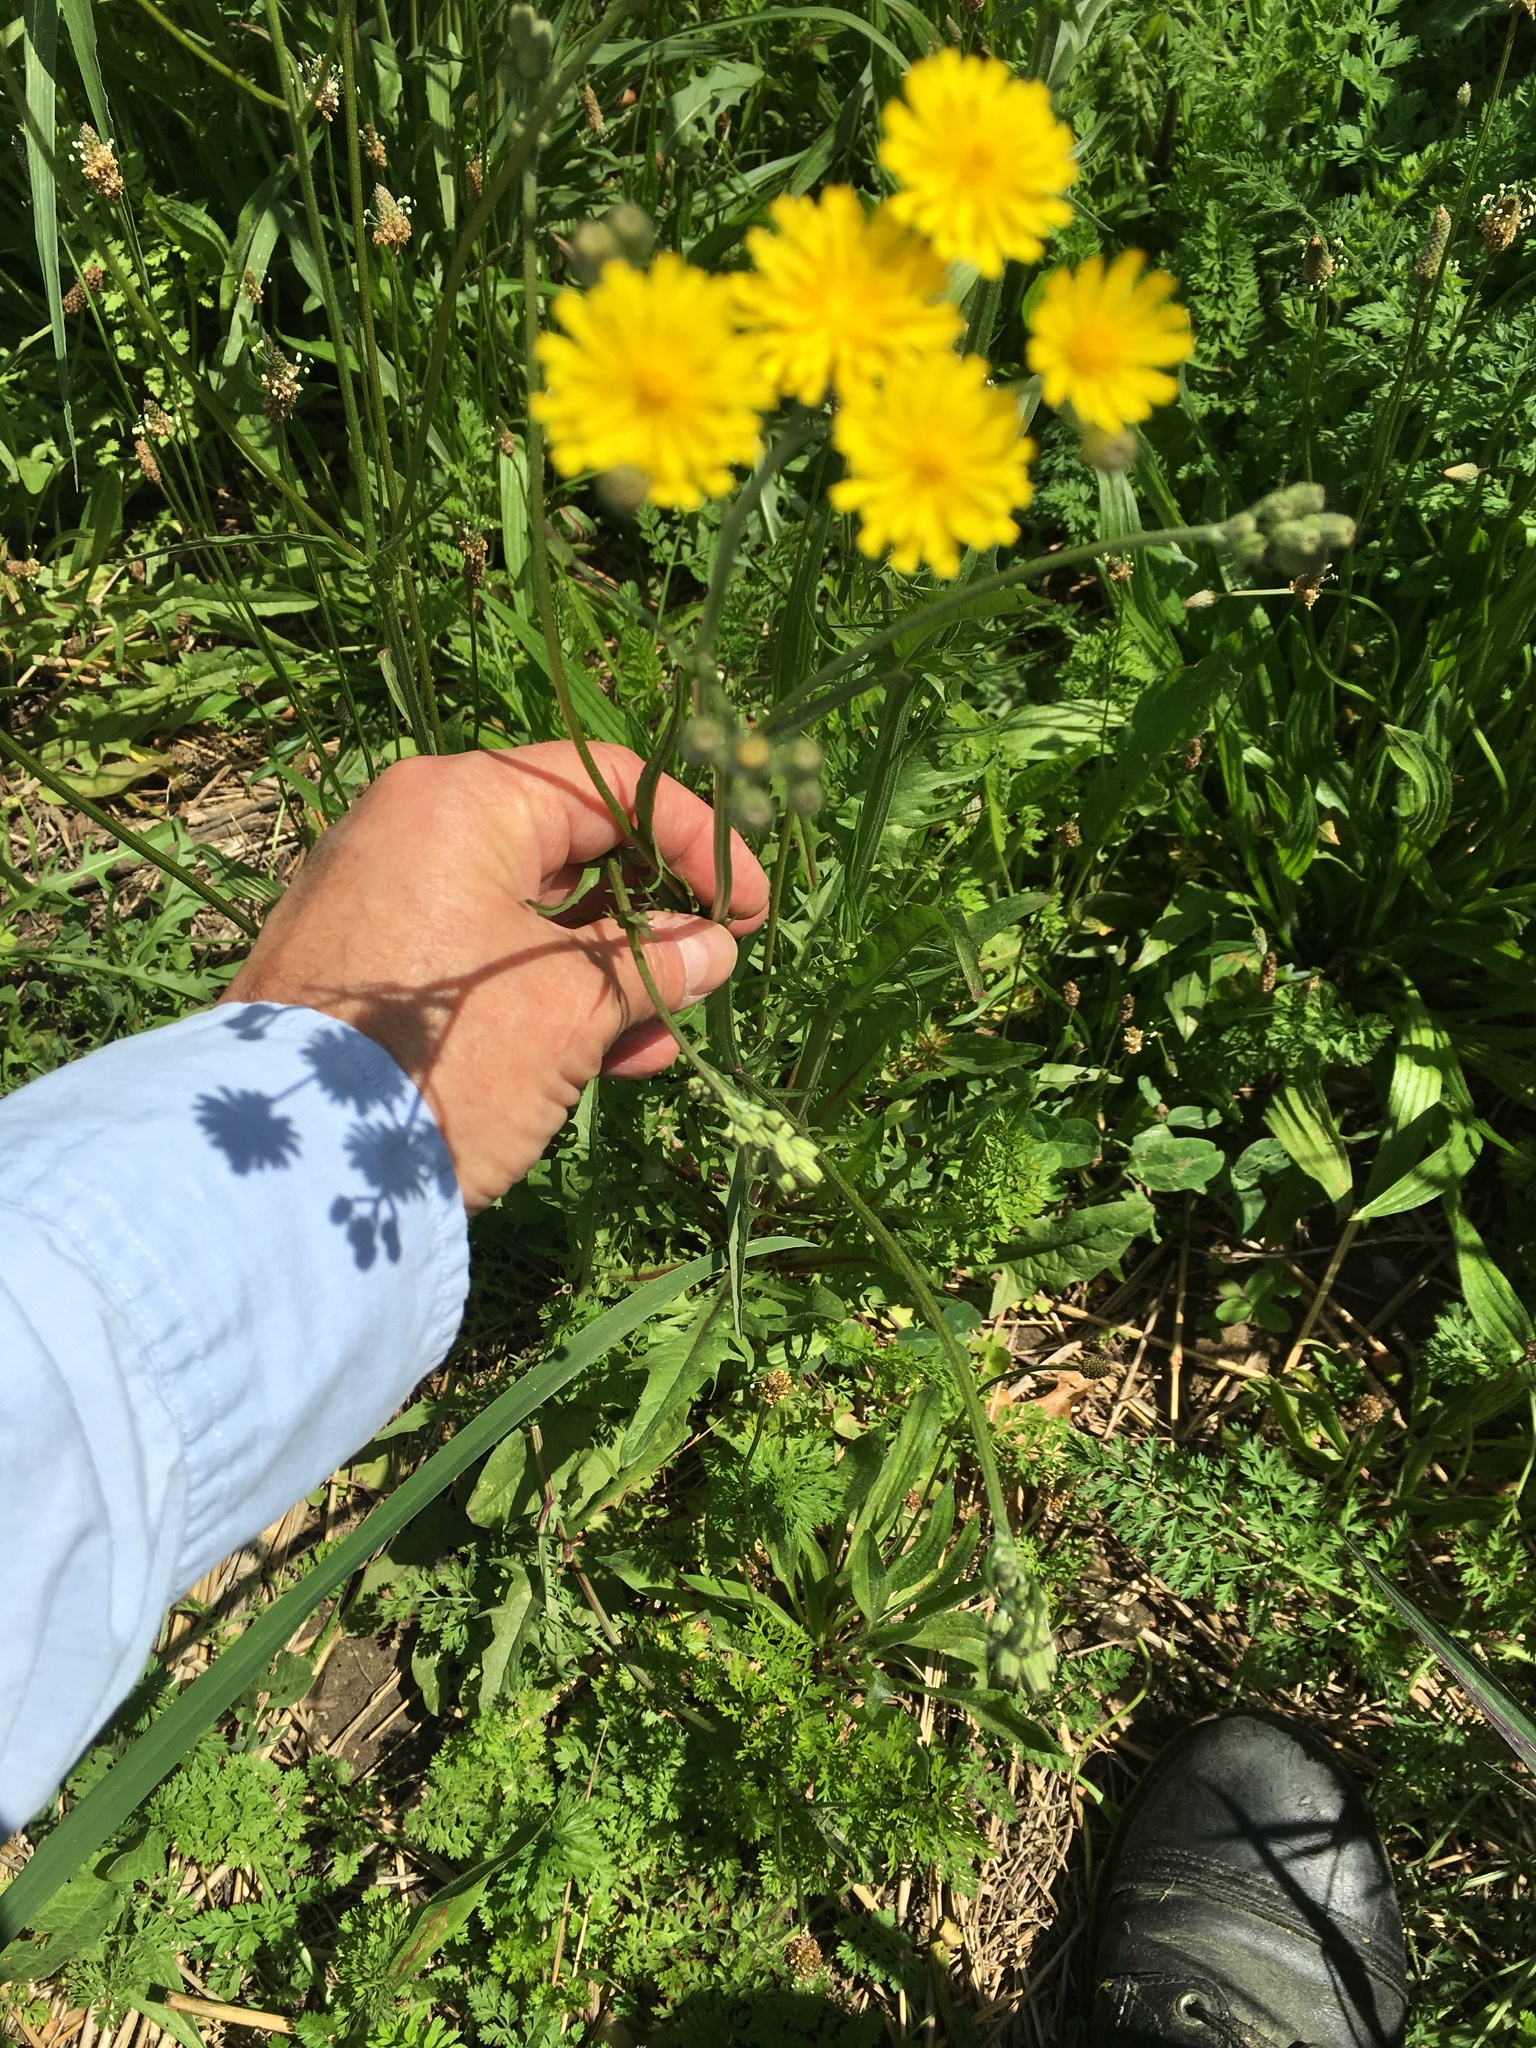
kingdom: Plantae
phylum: Tracheophyta
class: Magnoliopsida
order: Asterales
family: Asteraceae
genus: Crepis
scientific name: Crepis capillaris
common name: Smooth hawksbeard
